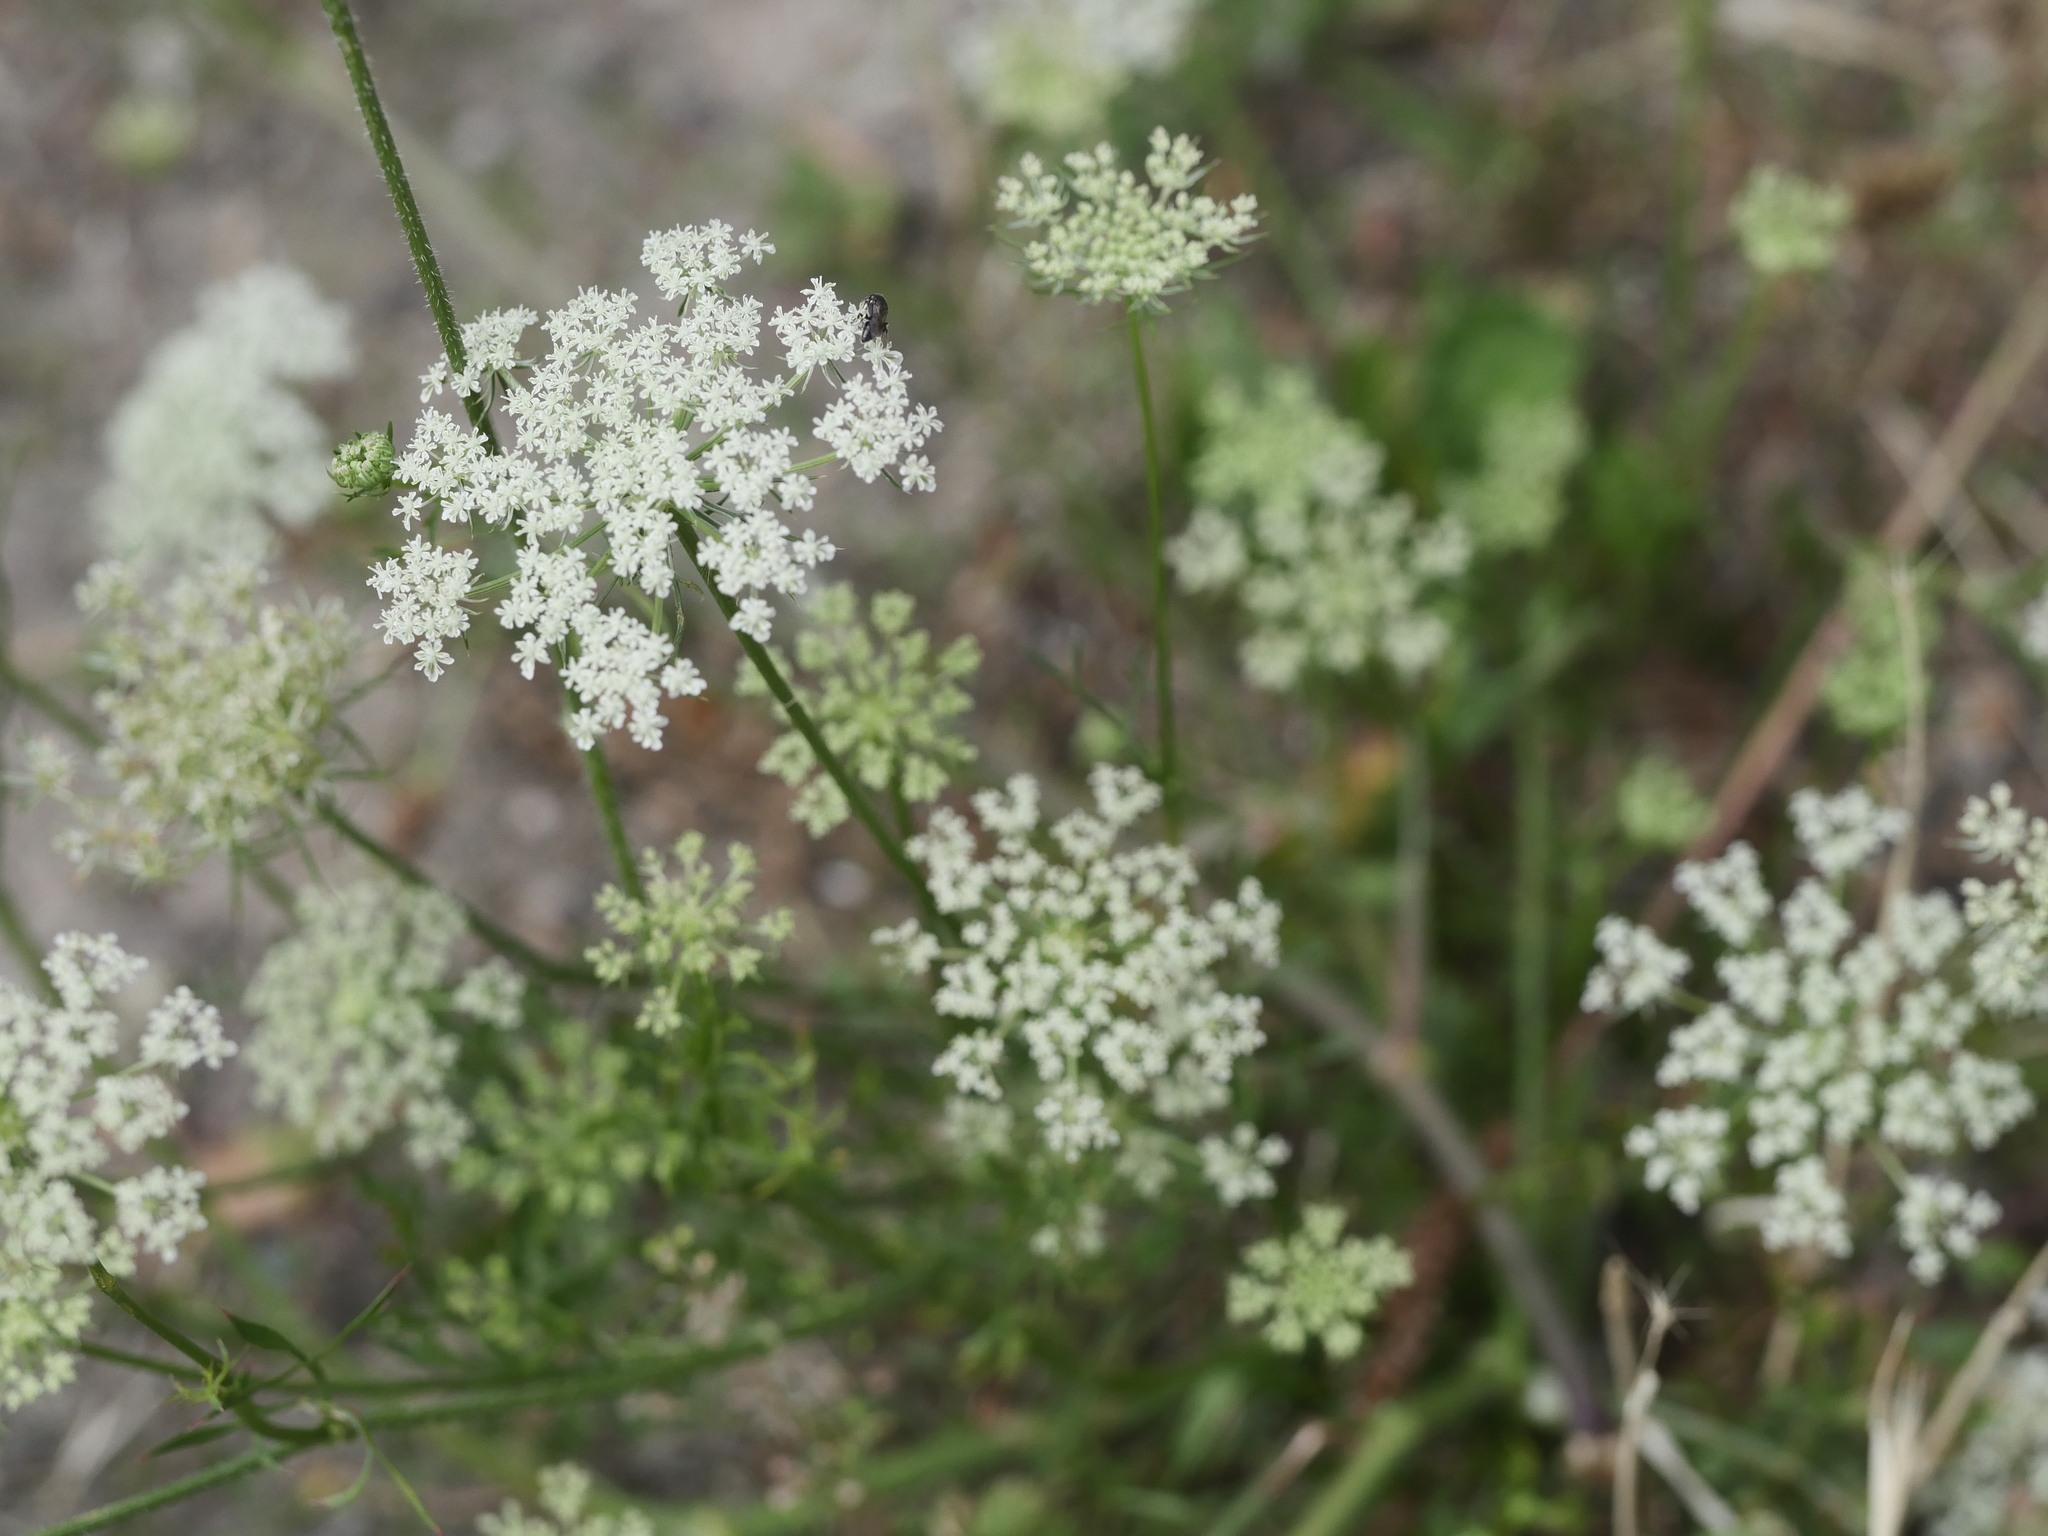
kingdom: Plantae
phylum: Tracheophyta
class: Magnoliopsida
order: Apiales
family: Apiaceae
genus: Daucus
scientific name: Daucus carota
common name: Wild carrot
